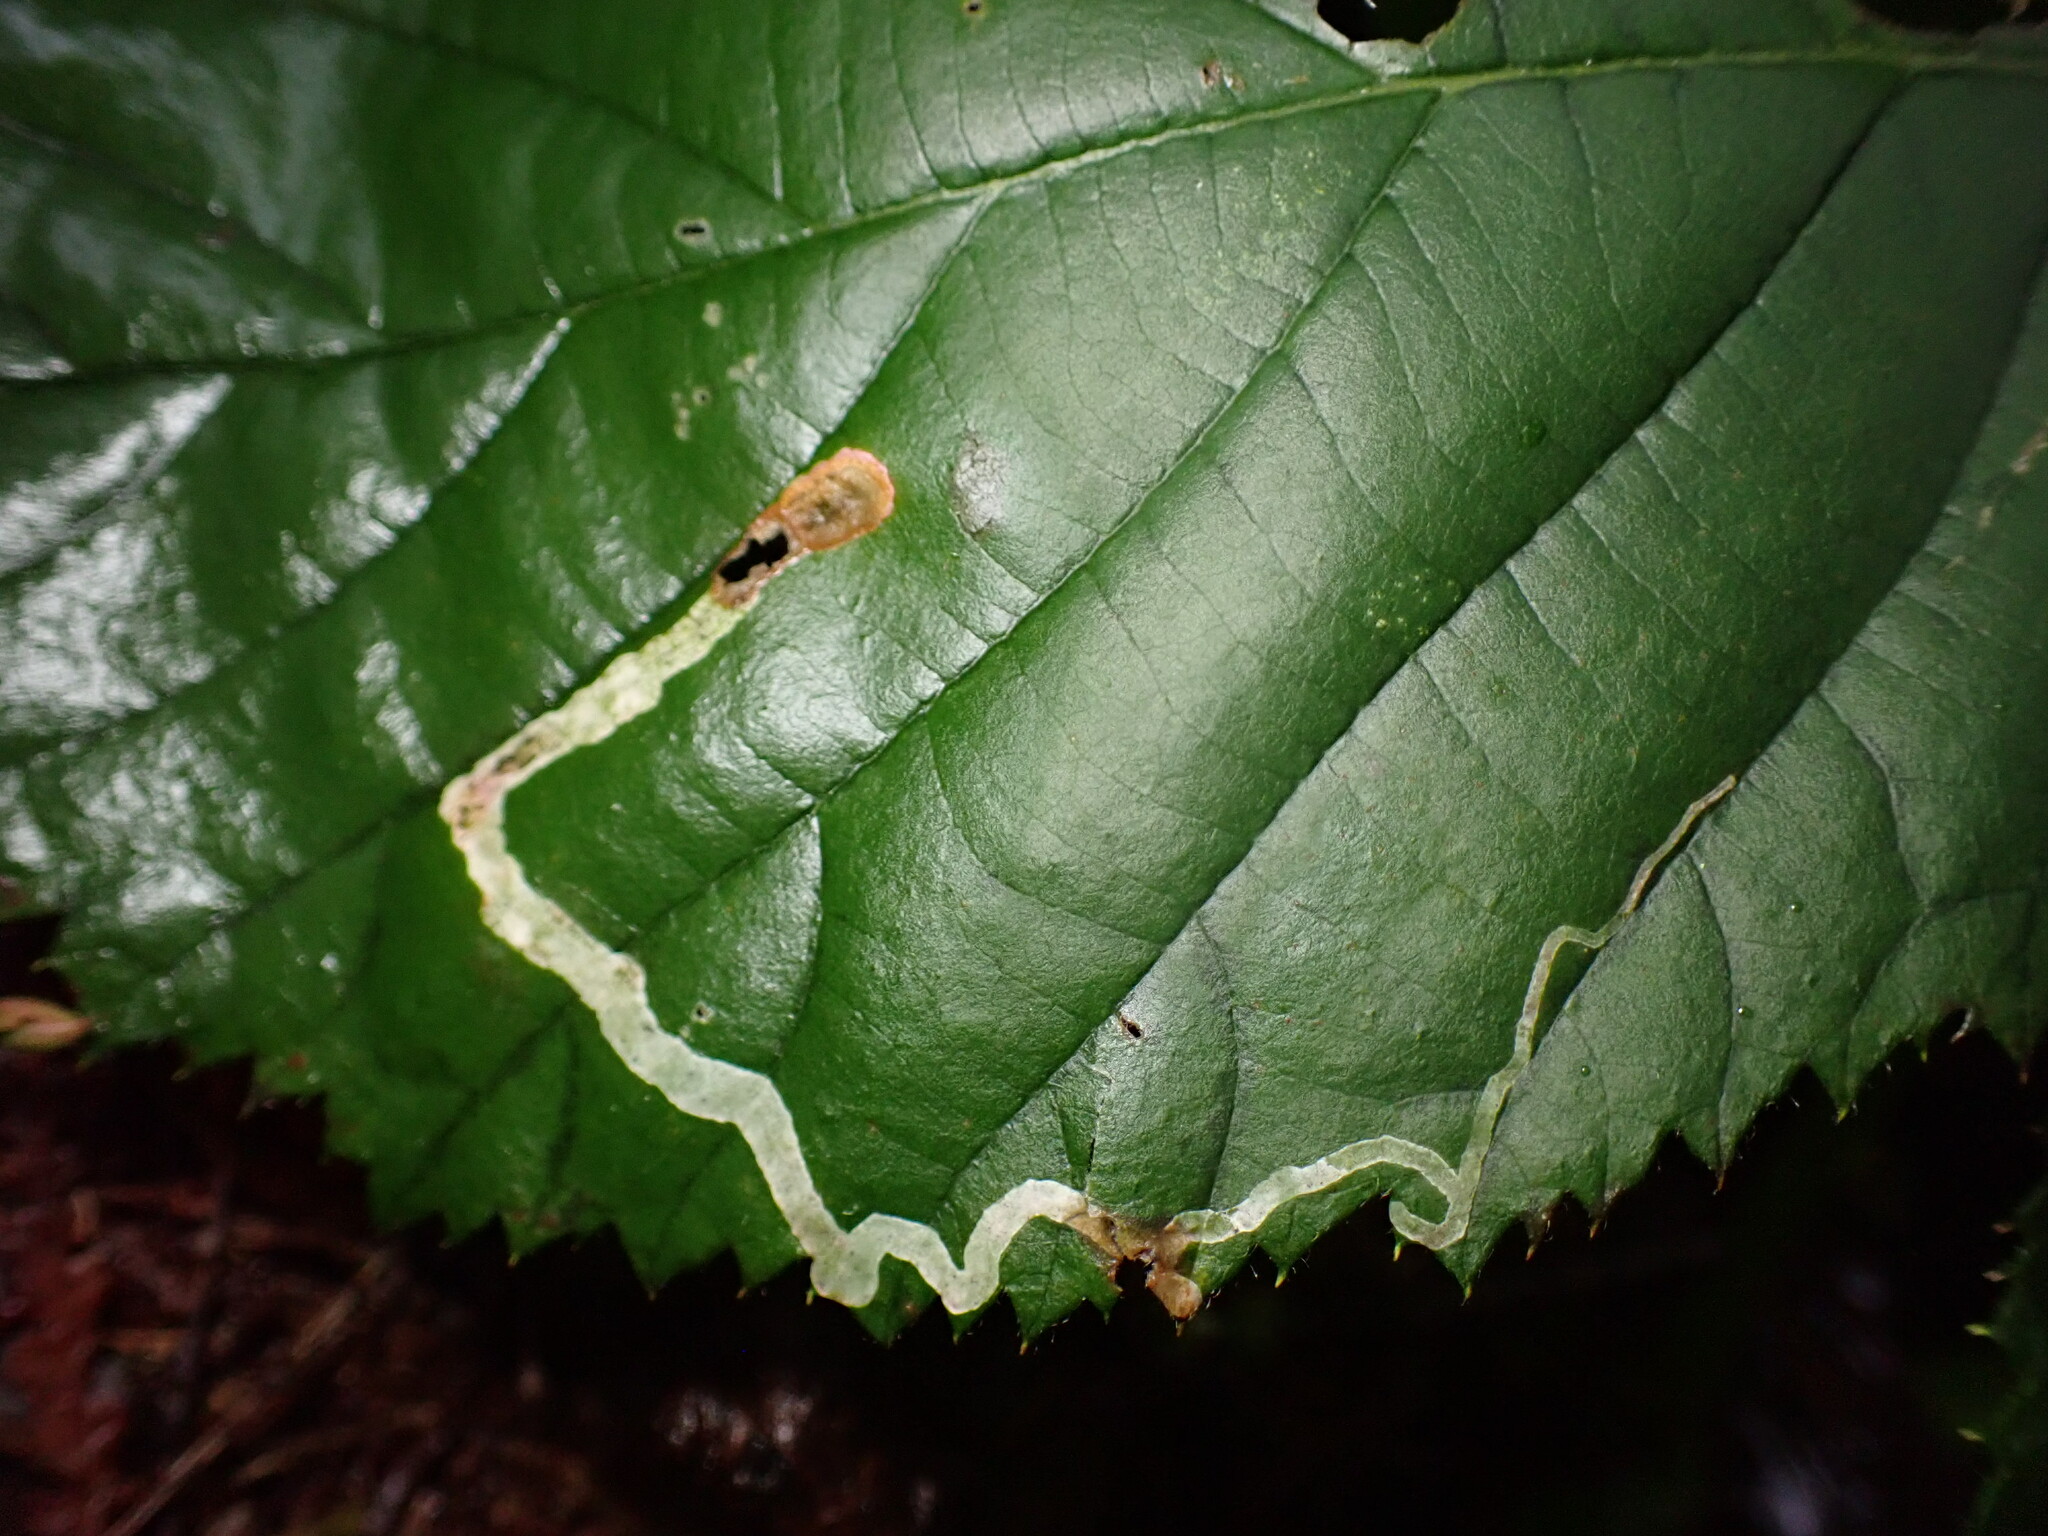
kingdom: Animalia
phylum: Arthropoda
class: Insecta
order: Diptera
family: Agromyzidae
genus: Agromyza
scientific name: Agromyza vockerothi
